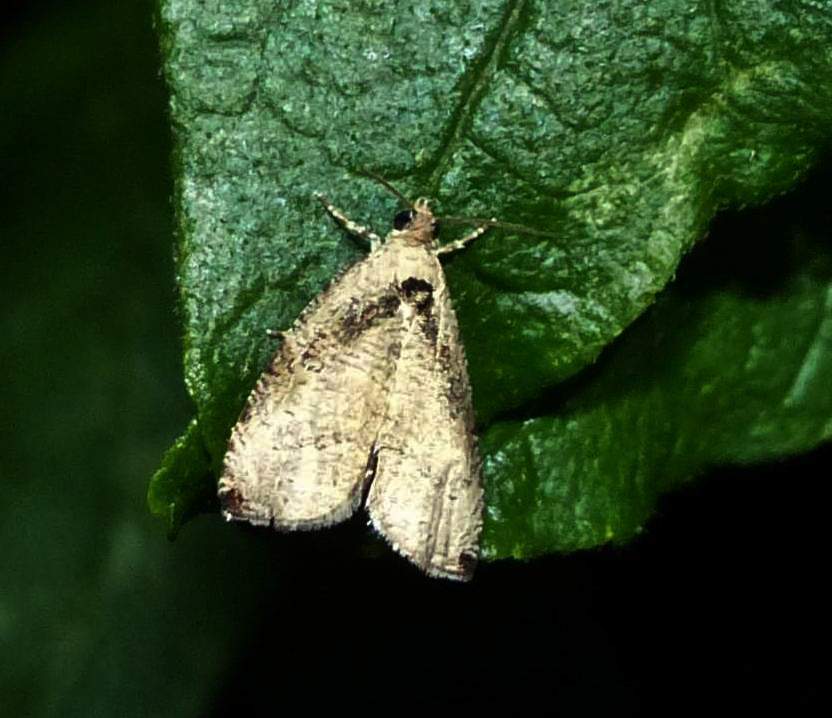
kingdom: Animalia
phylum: Arthropoda
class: Insecta
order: Lepidoptera
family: Tortricidae
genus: Olethreutes
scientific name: Olethreutes exoletum
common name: Wretched olethreutes moth
